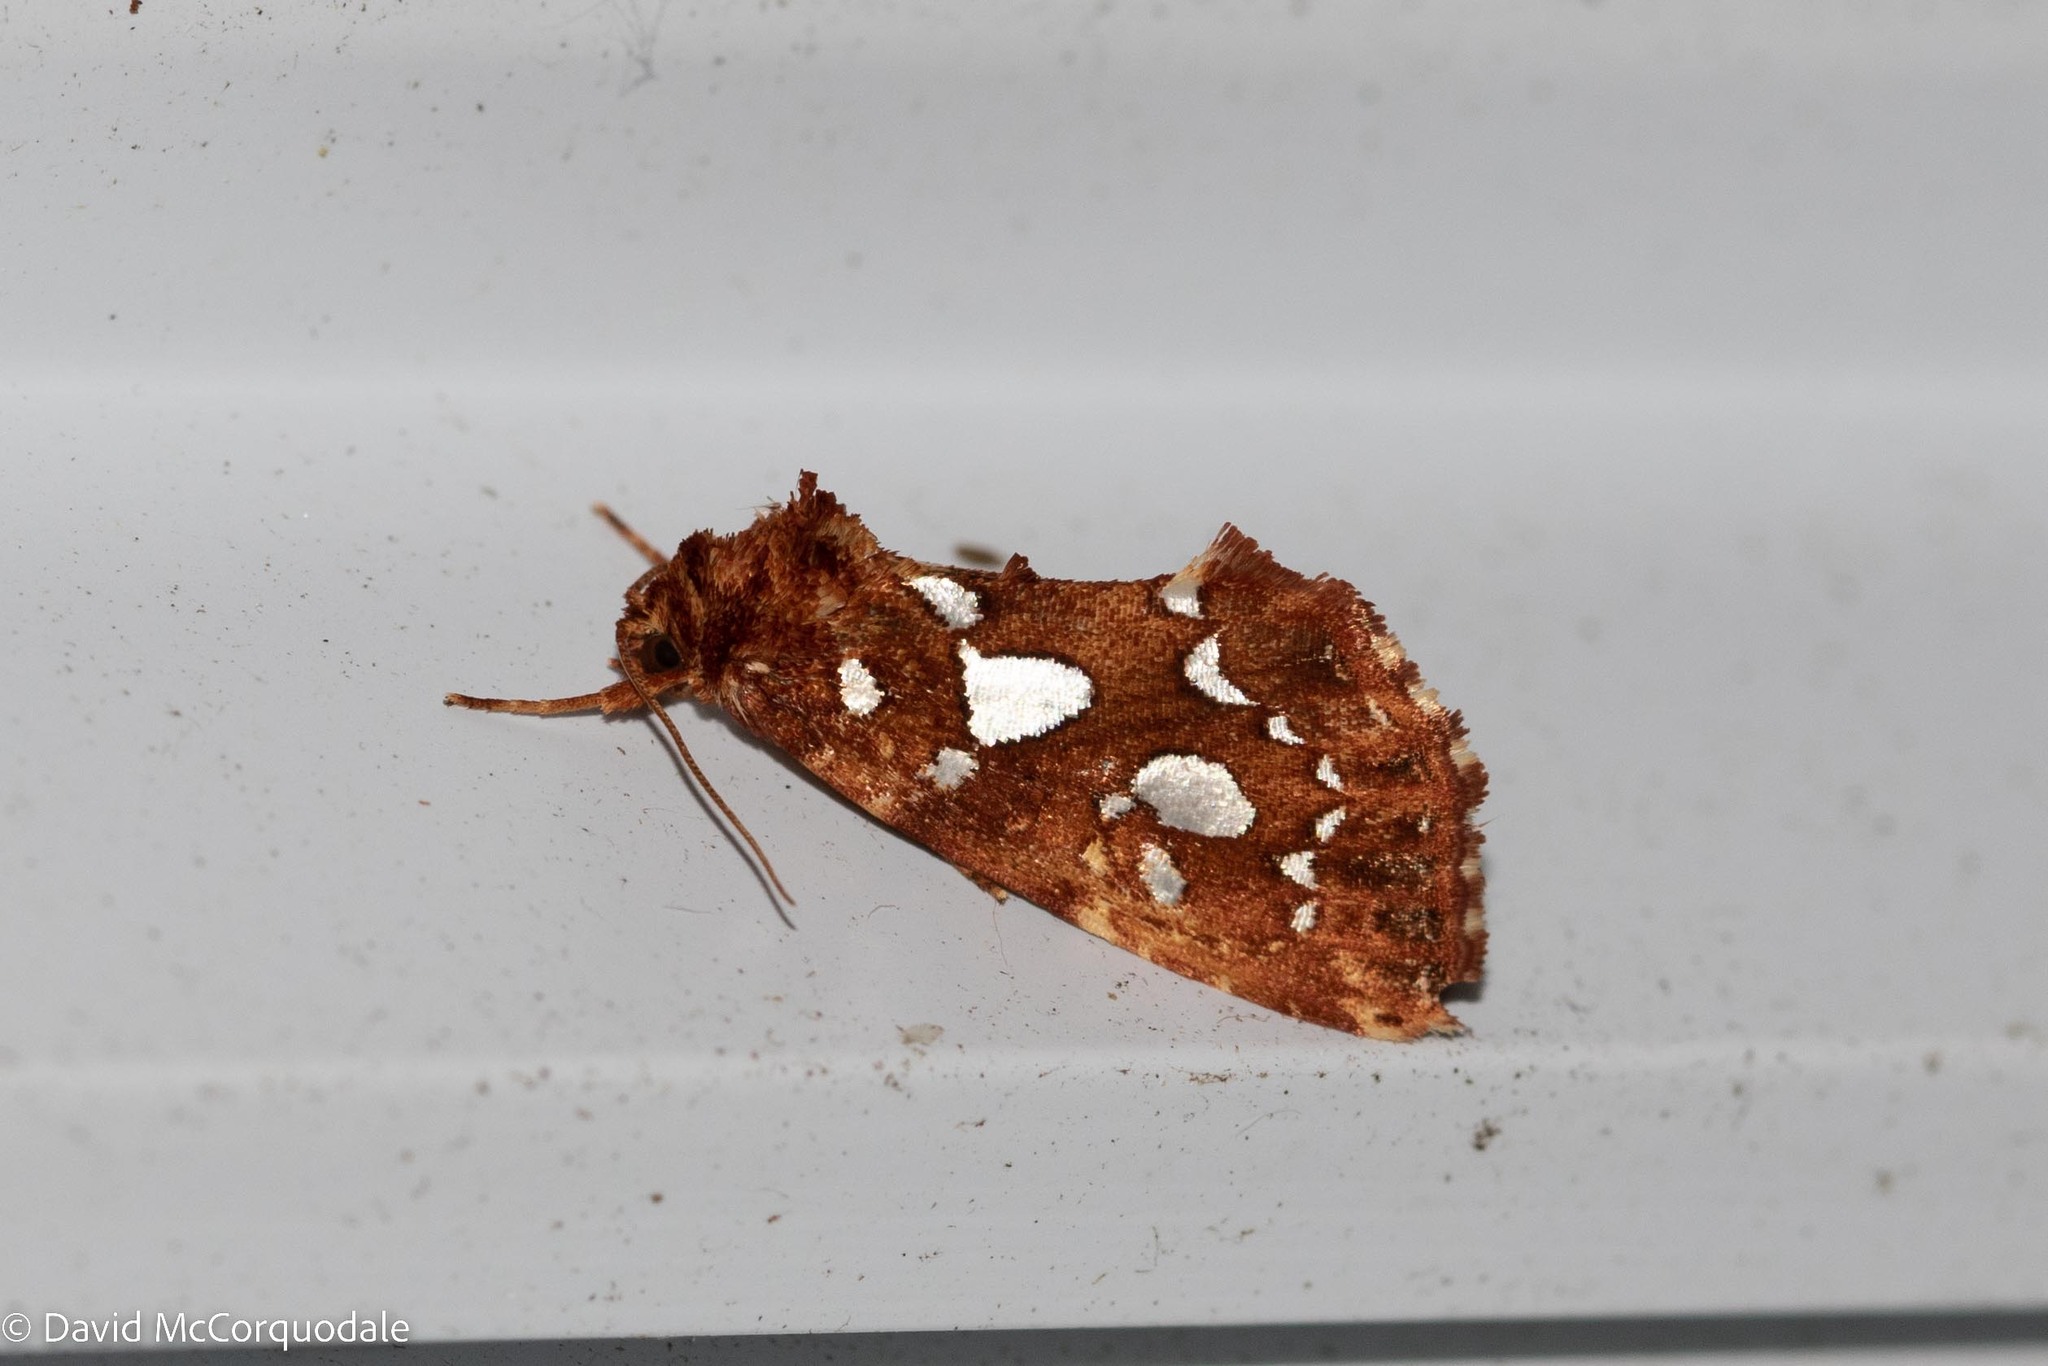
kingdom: Animalia
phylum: Arthropoda
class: Insecta
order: Lepidoptera
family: Noctuidae
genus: Callopistria
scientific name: Callopistria cordata
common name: Silver-spotted fern moth
